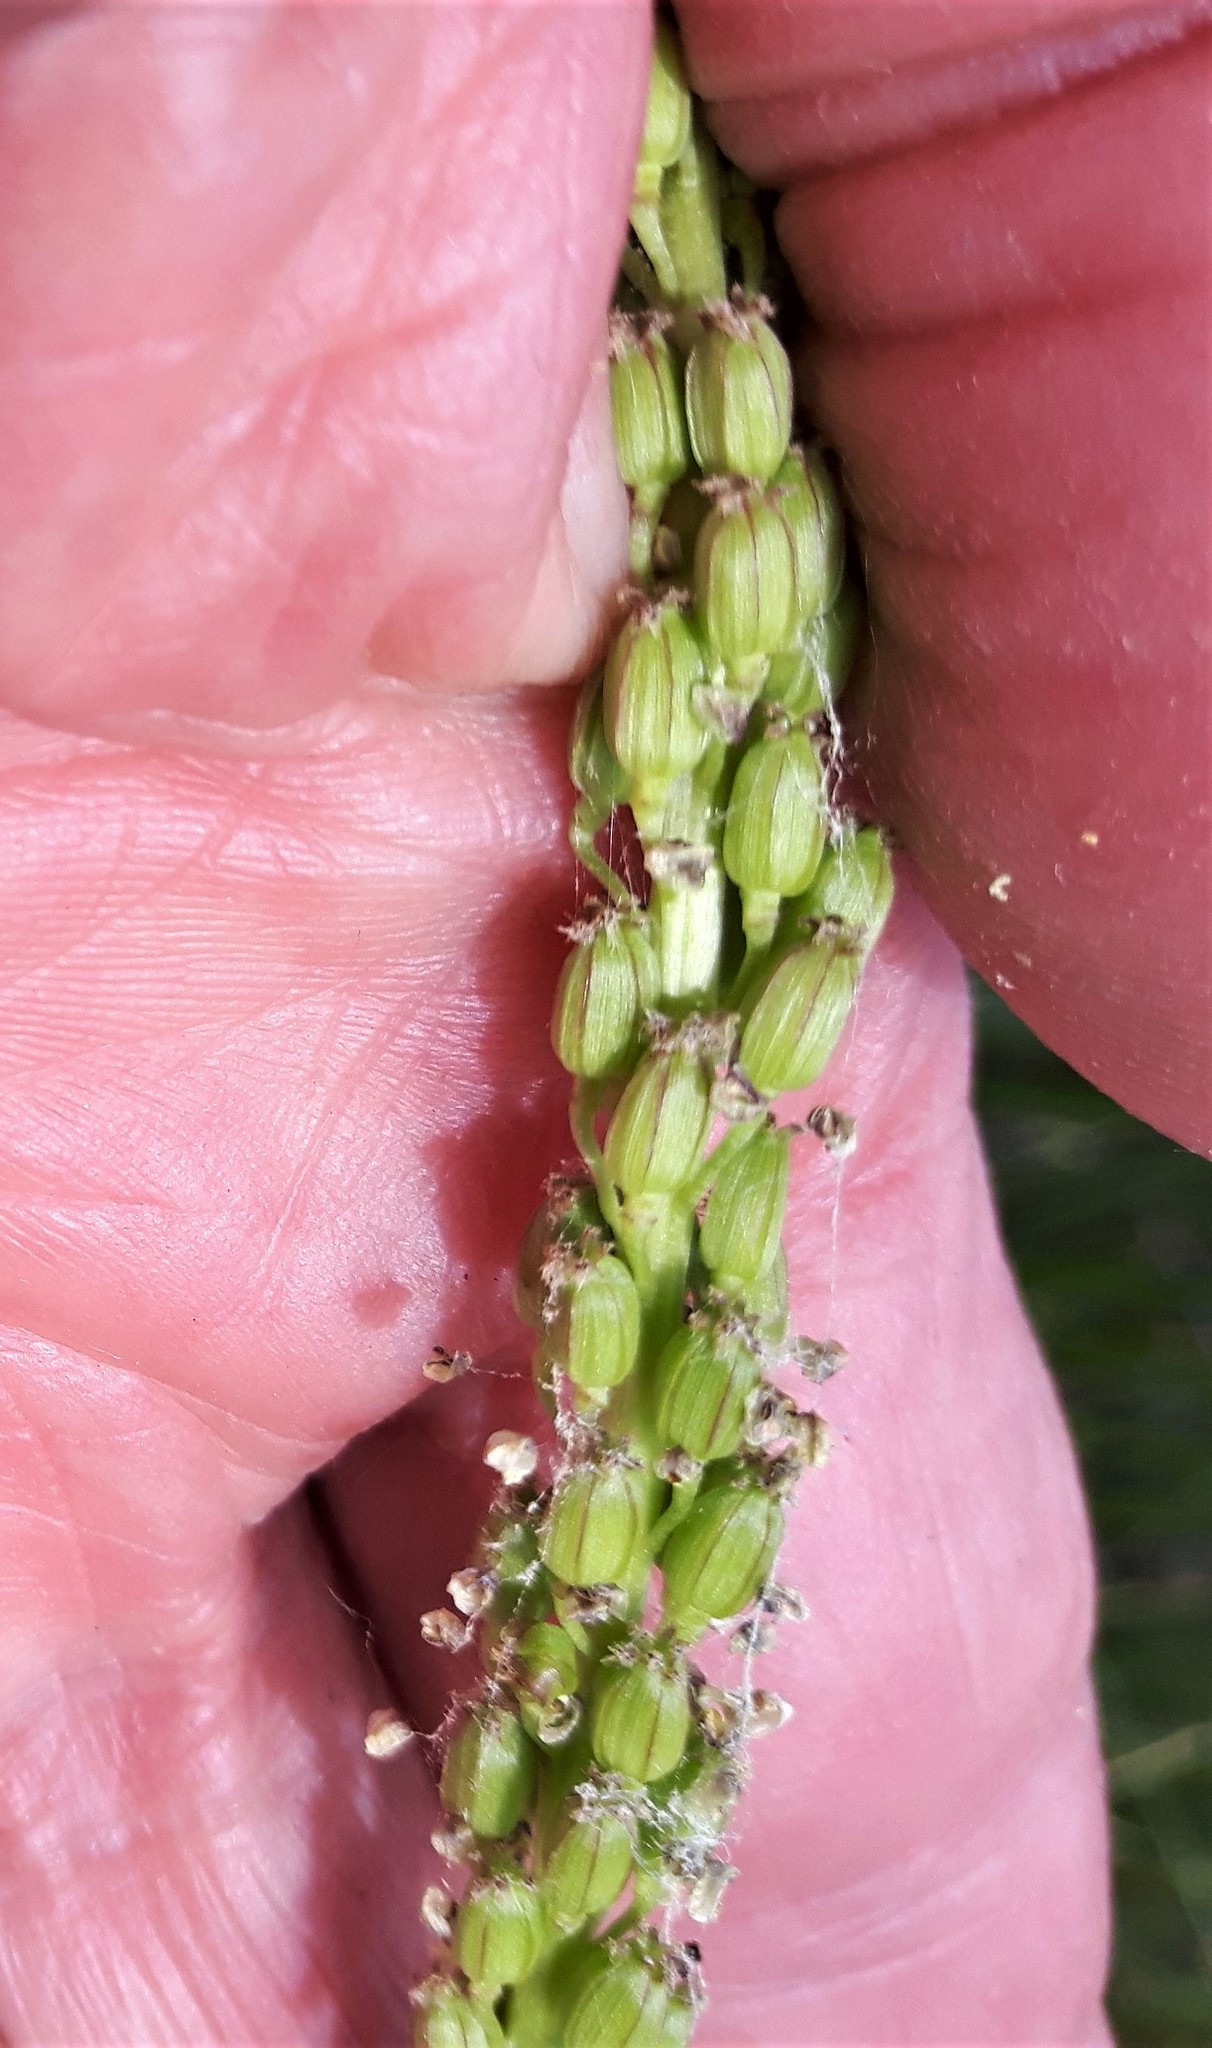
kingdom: Plantae
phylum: Tracheophyta
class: Liliopsida
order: Alismatales
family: Juncaginaceae
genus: Triglochin
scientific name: Triglochin maritima
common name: Sea arrowgrass
